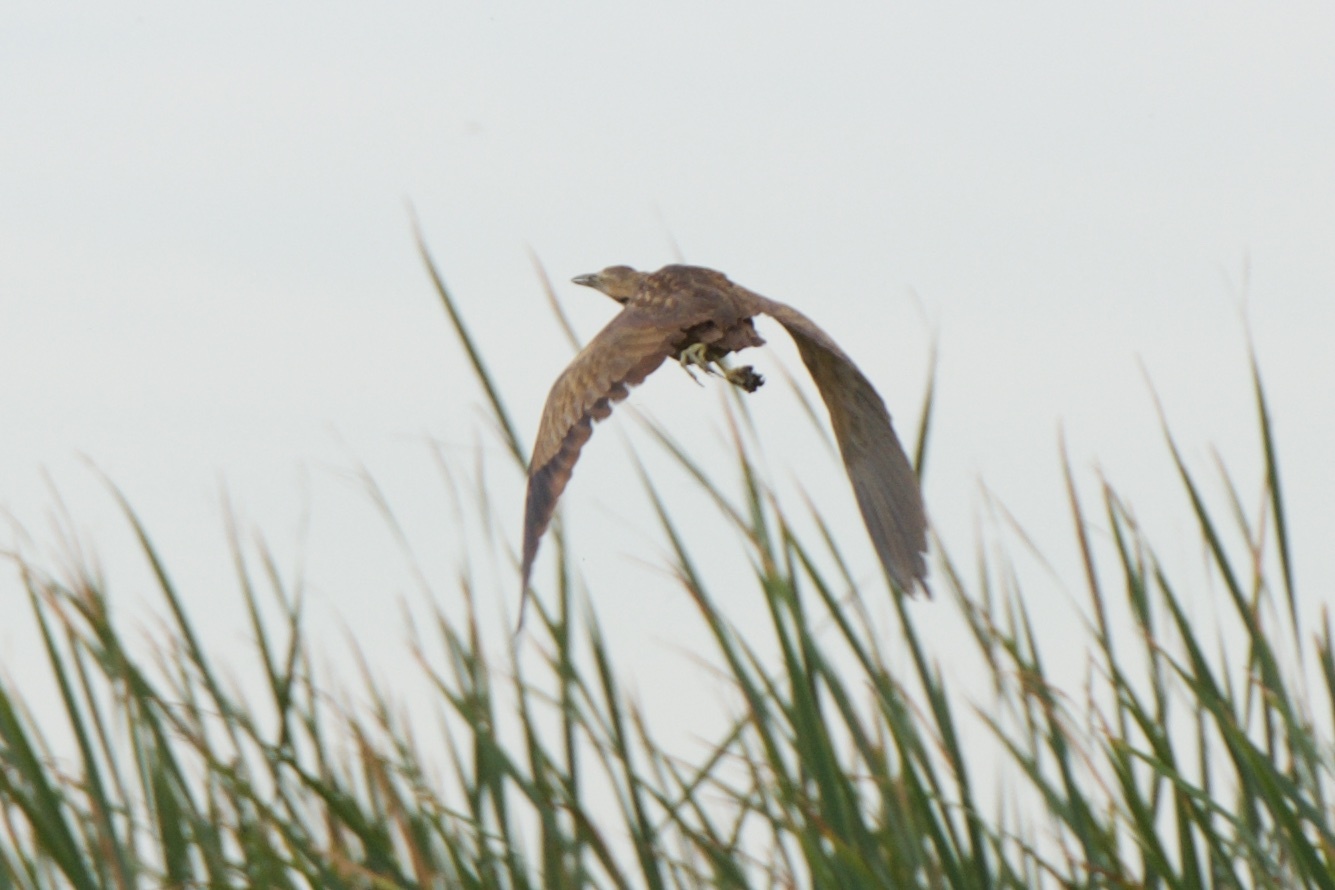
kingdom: Animalia
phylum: Chordata
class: Aves
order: Pelecaniformes
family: Ardeidae
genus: Botaurus
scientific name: Botaurus lentiginosus
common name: American bittern
